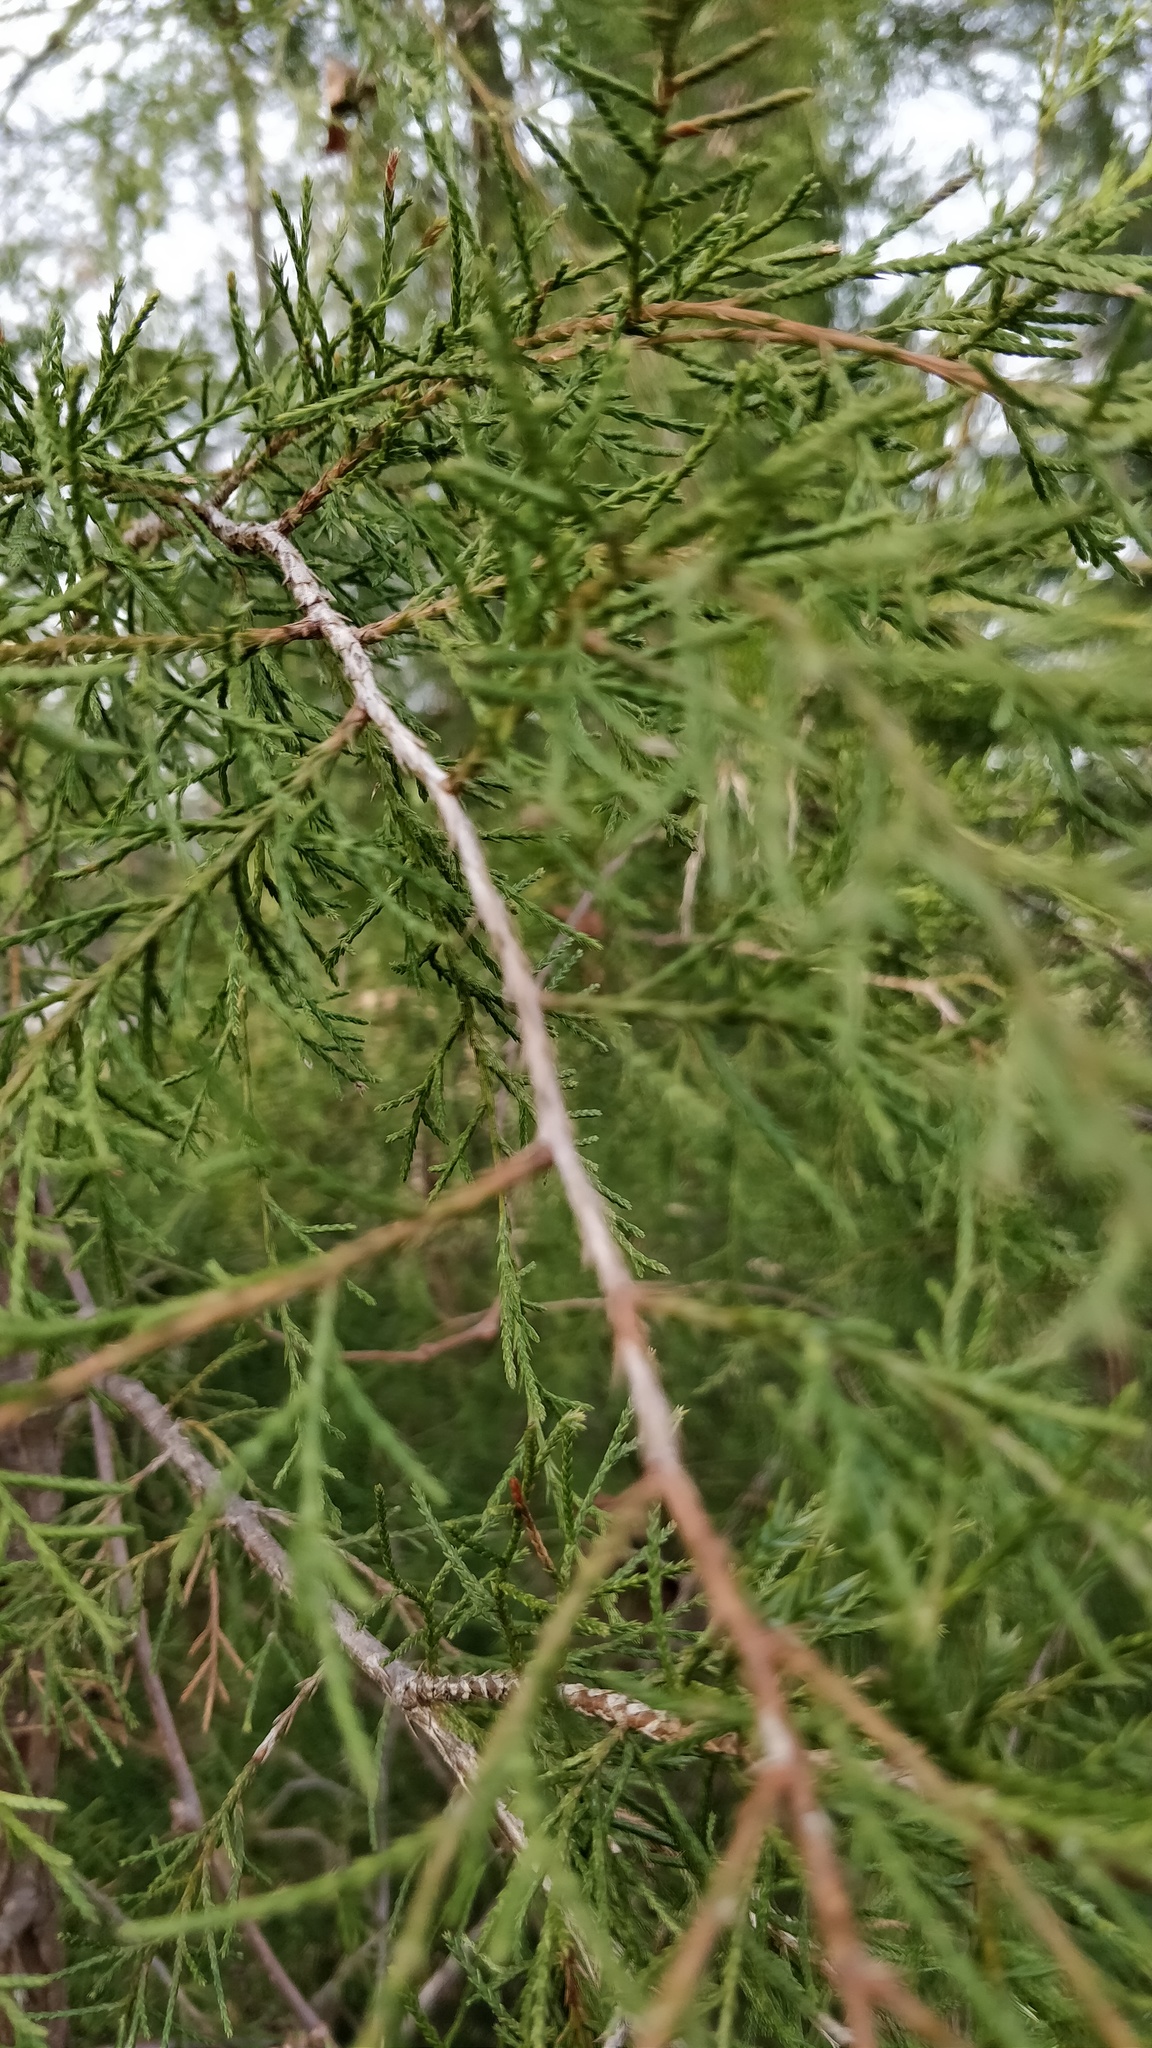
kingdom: Plantae
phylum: Tracheophyta
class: Pinopsida
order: Pinales
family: Cupressaceae
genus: Juniperus
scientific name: Juniperus virginiana
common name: Red juniper
